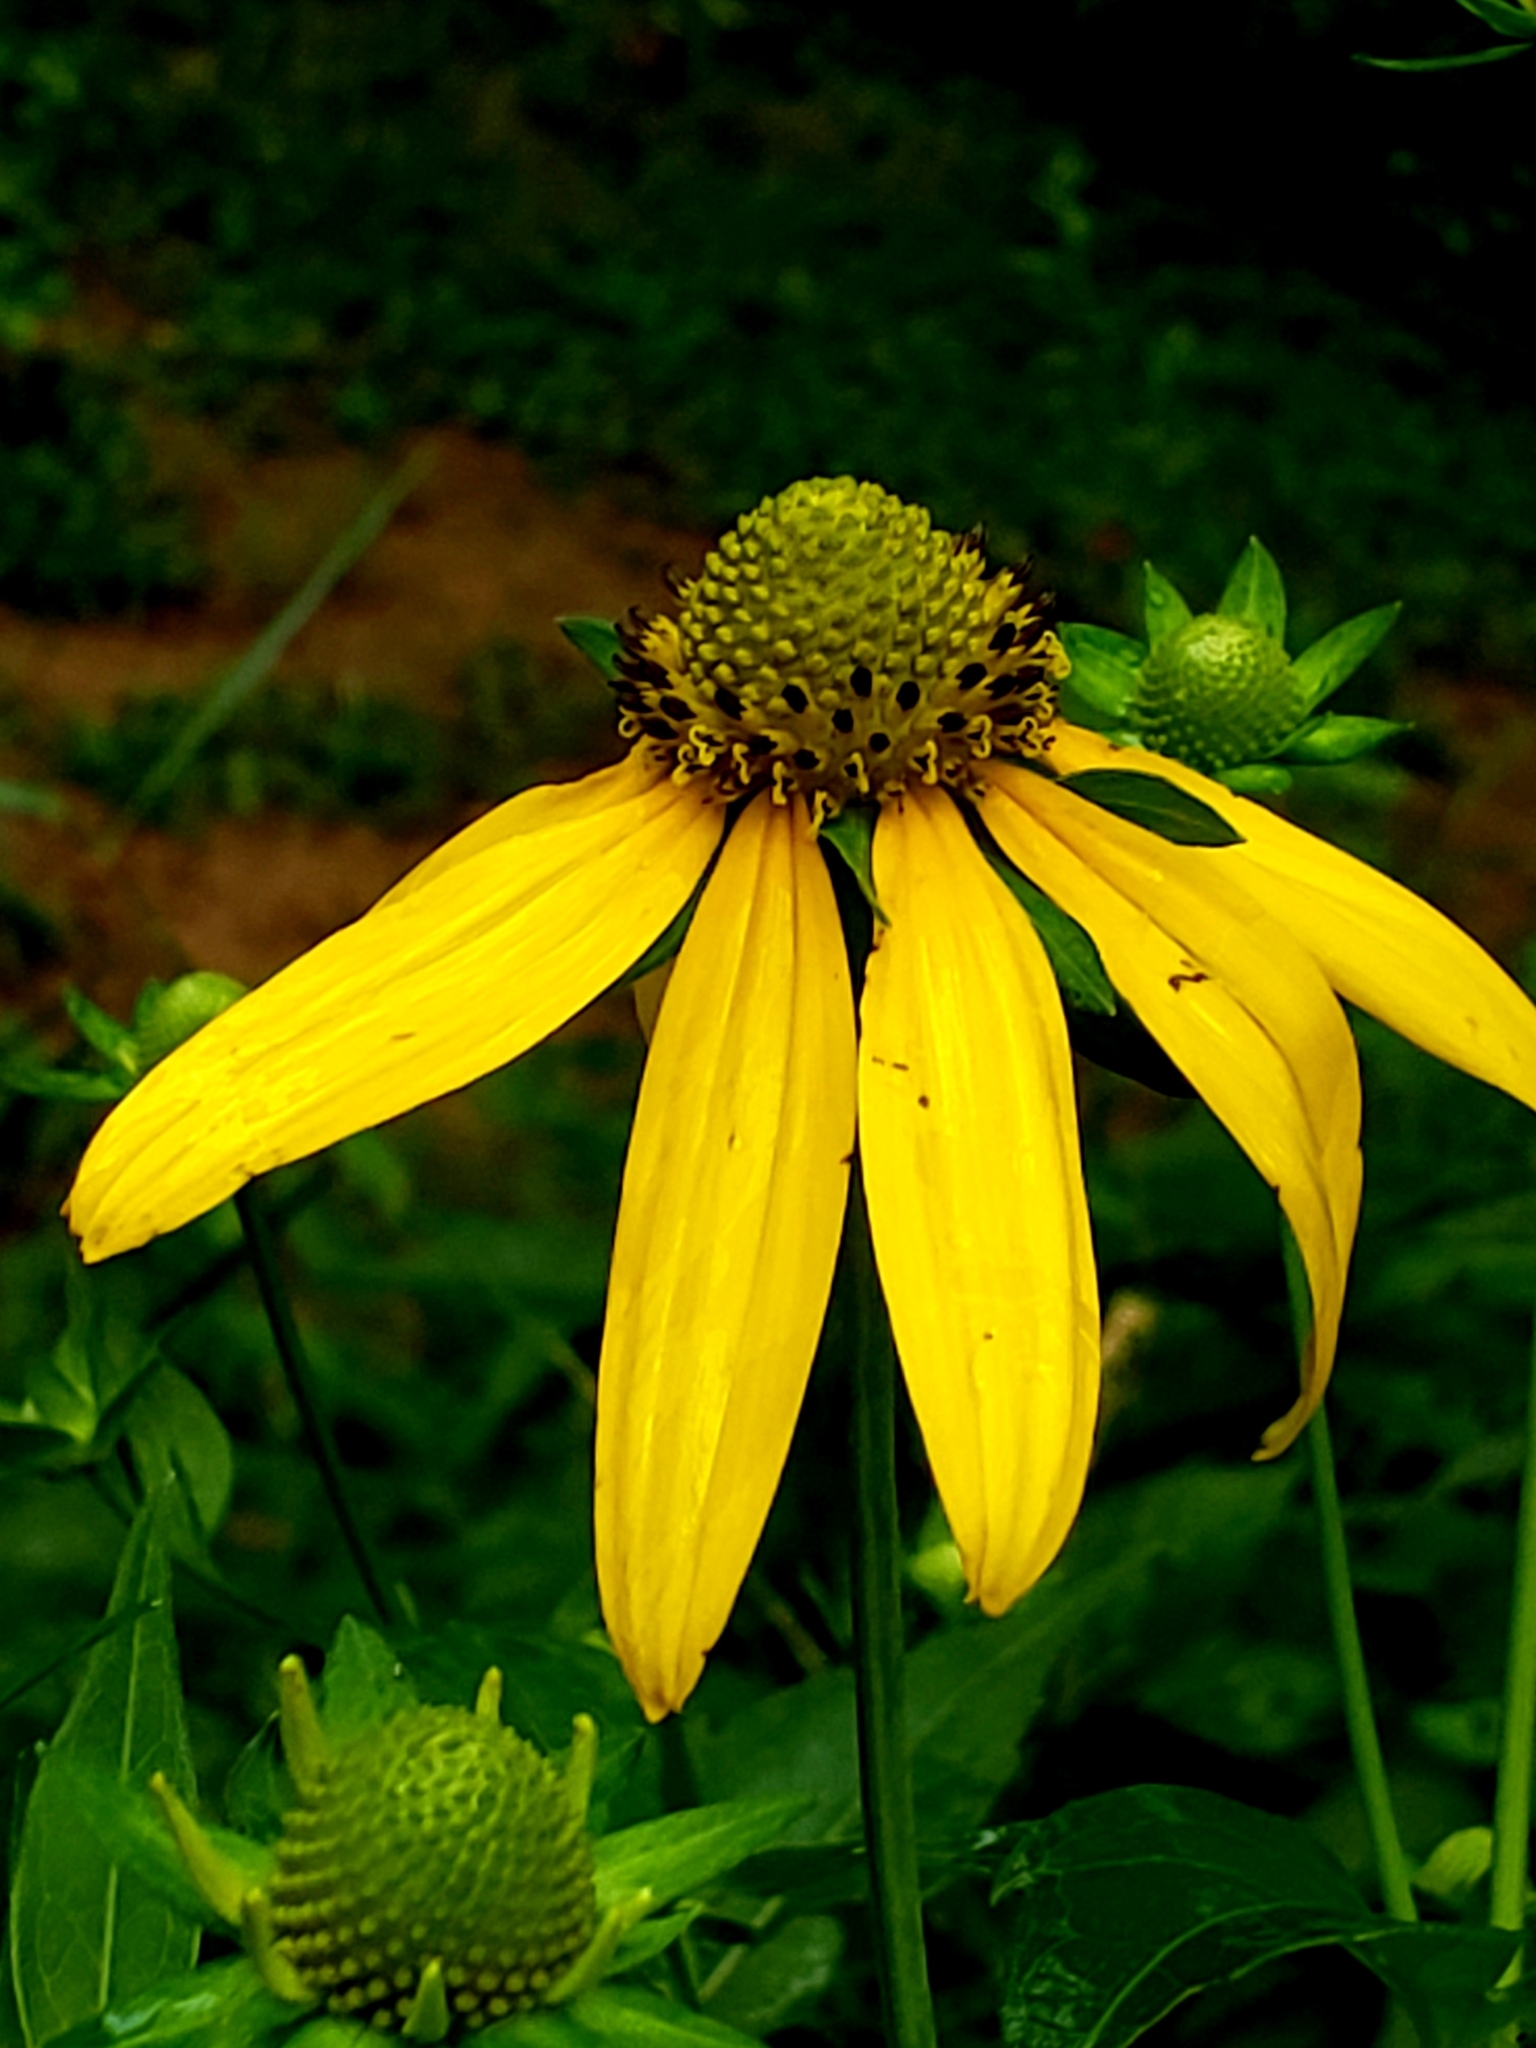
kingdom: Plantae
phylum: Tracheophyta
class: Magnoliopsida
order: Asterales
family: Asteraceae
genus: Rudbeckia
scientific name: Rudbeckia laciniata
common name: Coneflower
